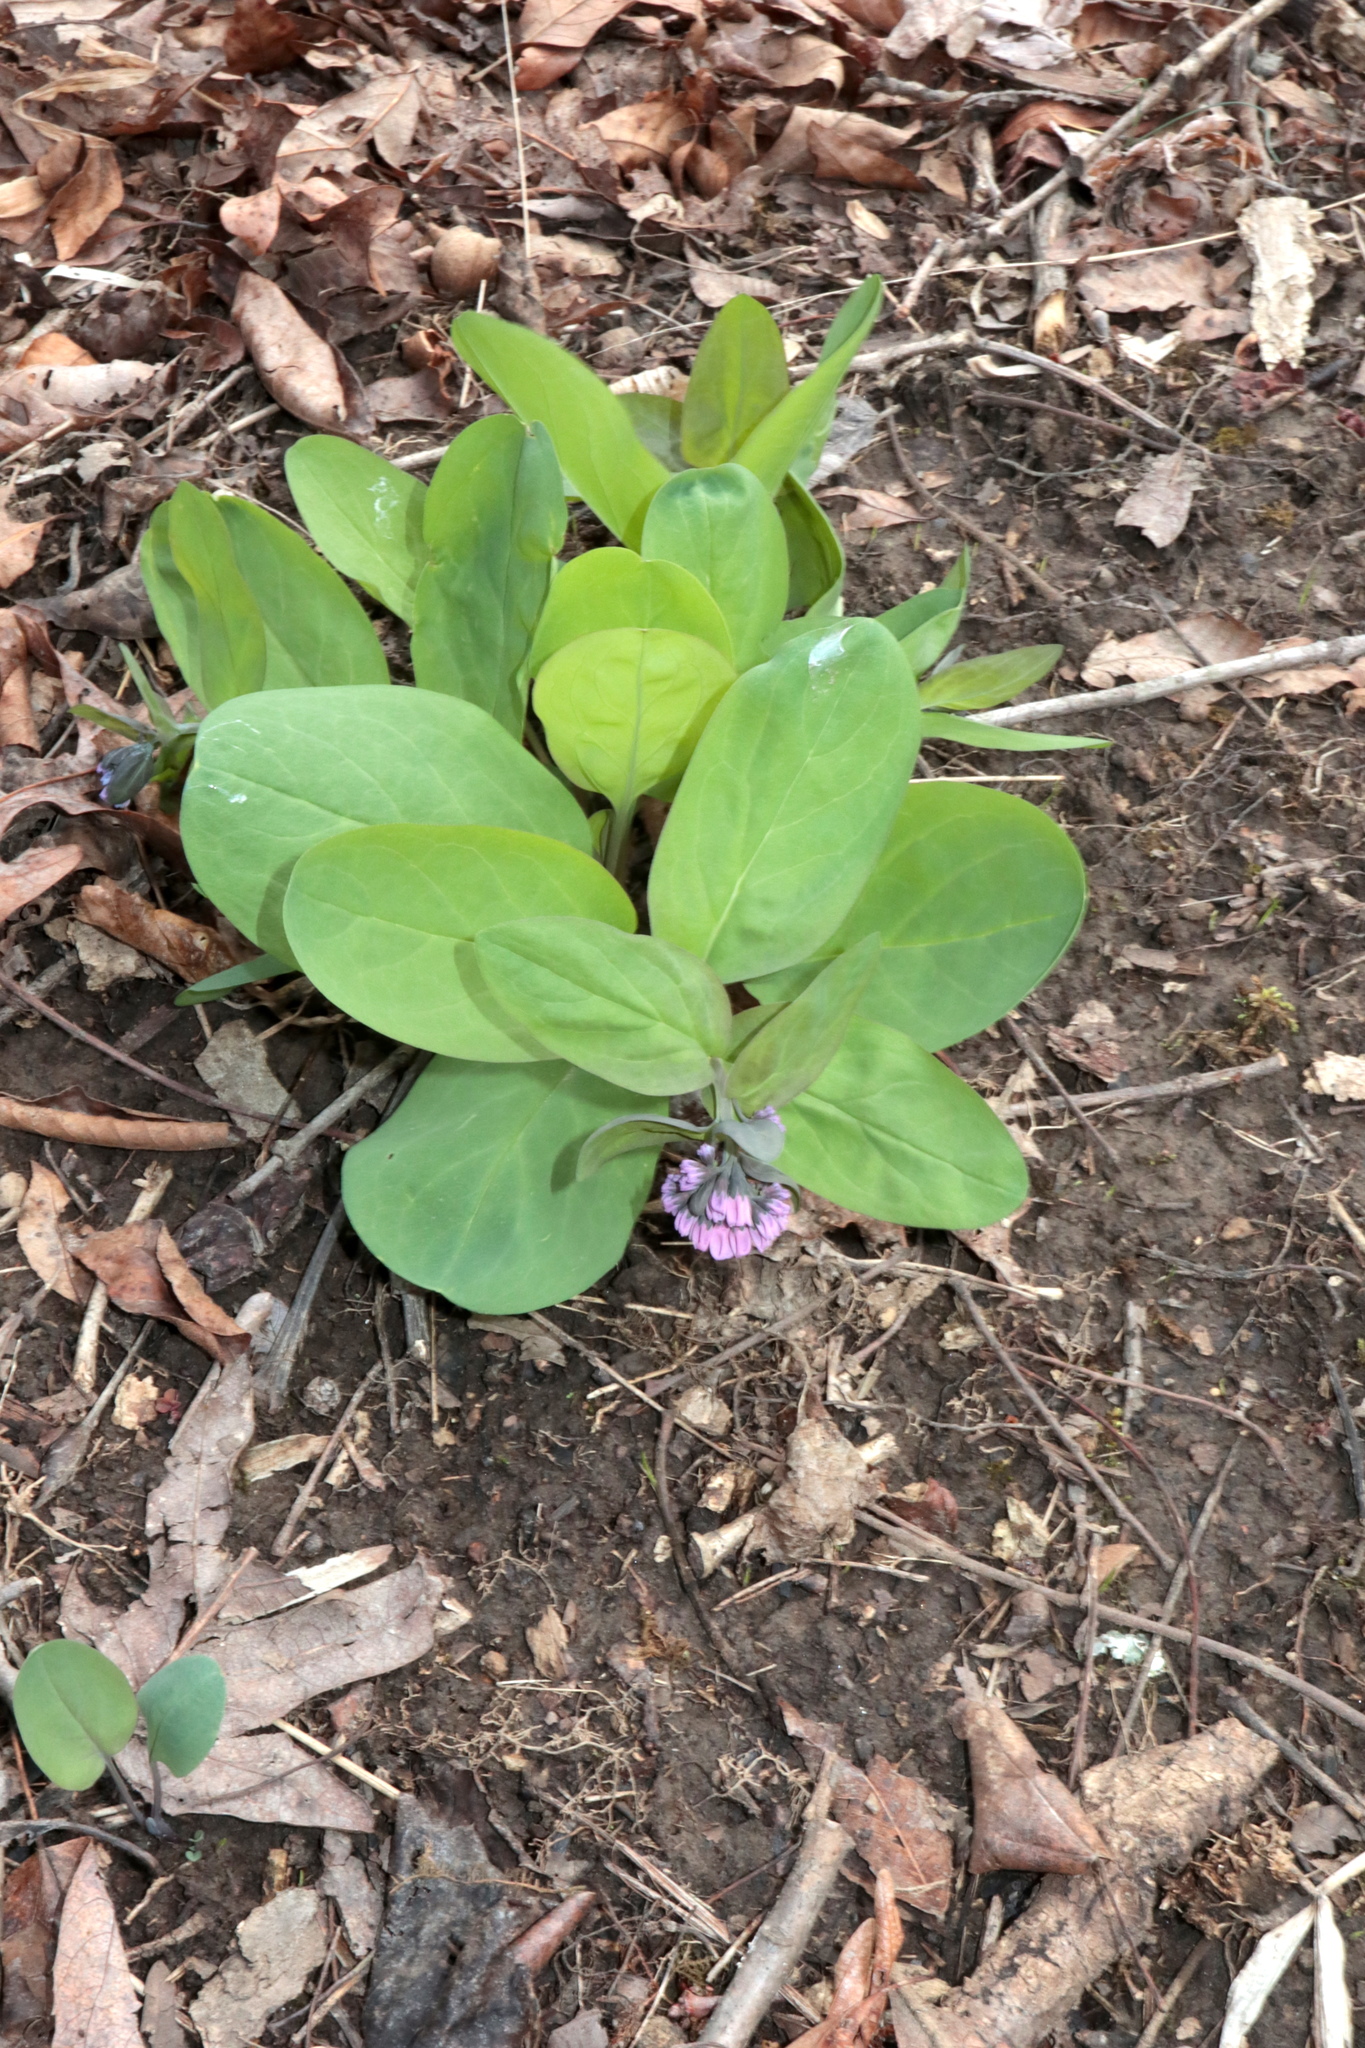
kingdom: Plantae
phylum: Tracheophyta
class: Magnoliopsida
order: Boraginales
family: Boraginaceae
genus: Mertensia
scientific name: Mertensia virginica
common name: Virginia bluebells
